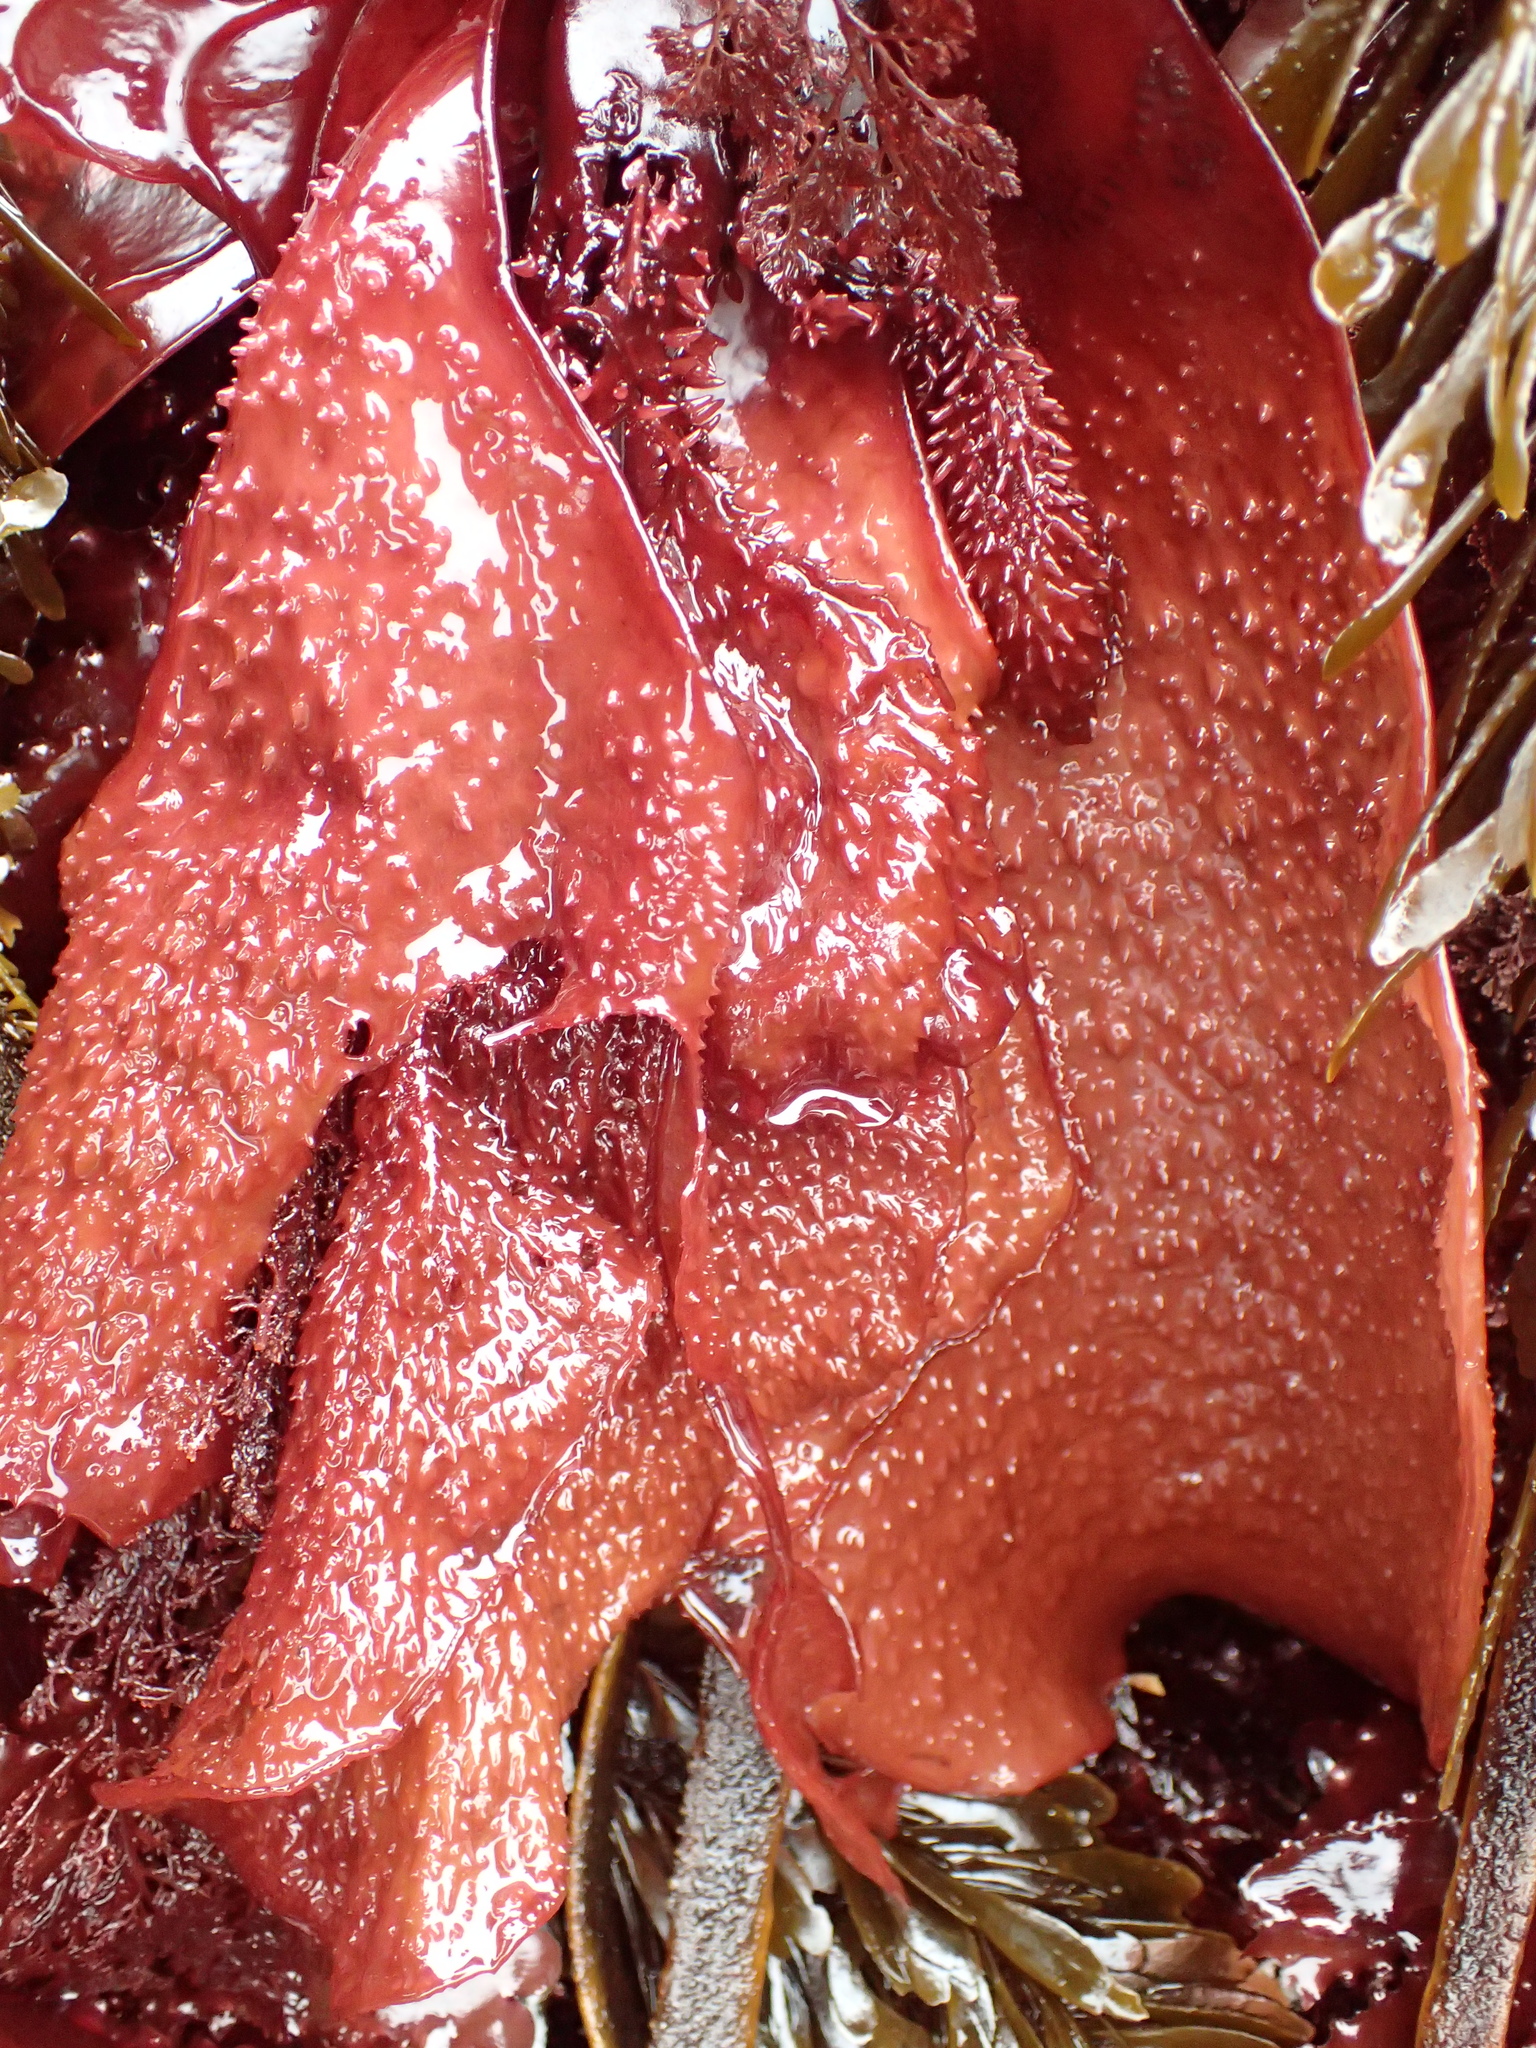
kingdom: Plantae
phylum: Rhodophyta
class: Florideophyceae
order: Gigartinales
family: Gigartinaceae
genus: Chondracanthus
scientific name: Chondracanthus exasperatus
